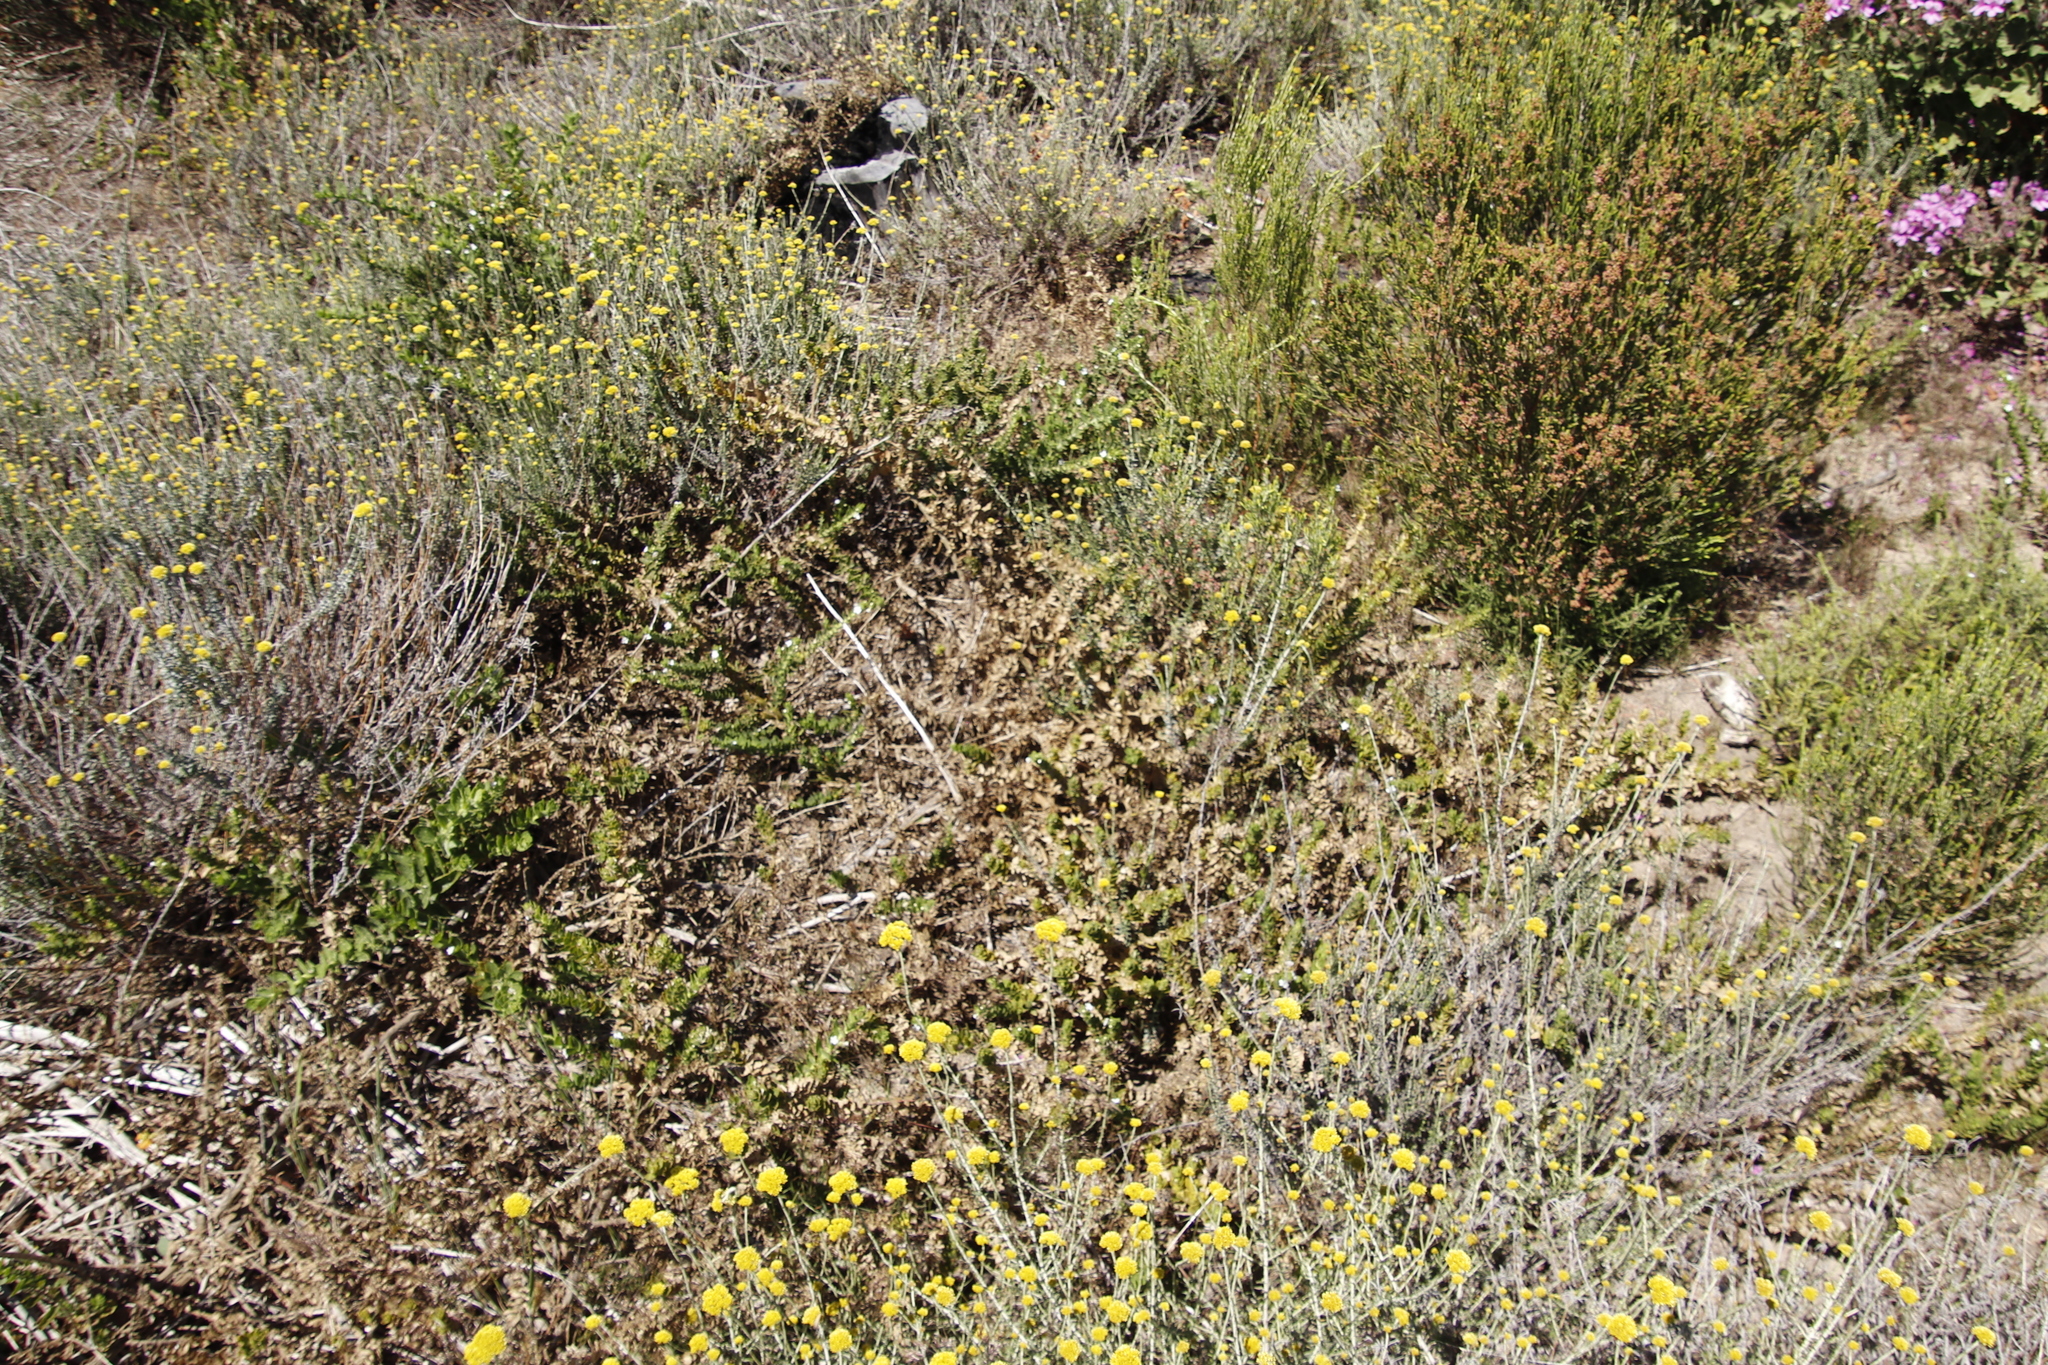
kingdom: Plantae
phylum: Tracheophyta
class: Magnoliopsida
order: Lamiales
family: Scrophulariaceae
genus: Oftia
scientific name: Oftia africana
